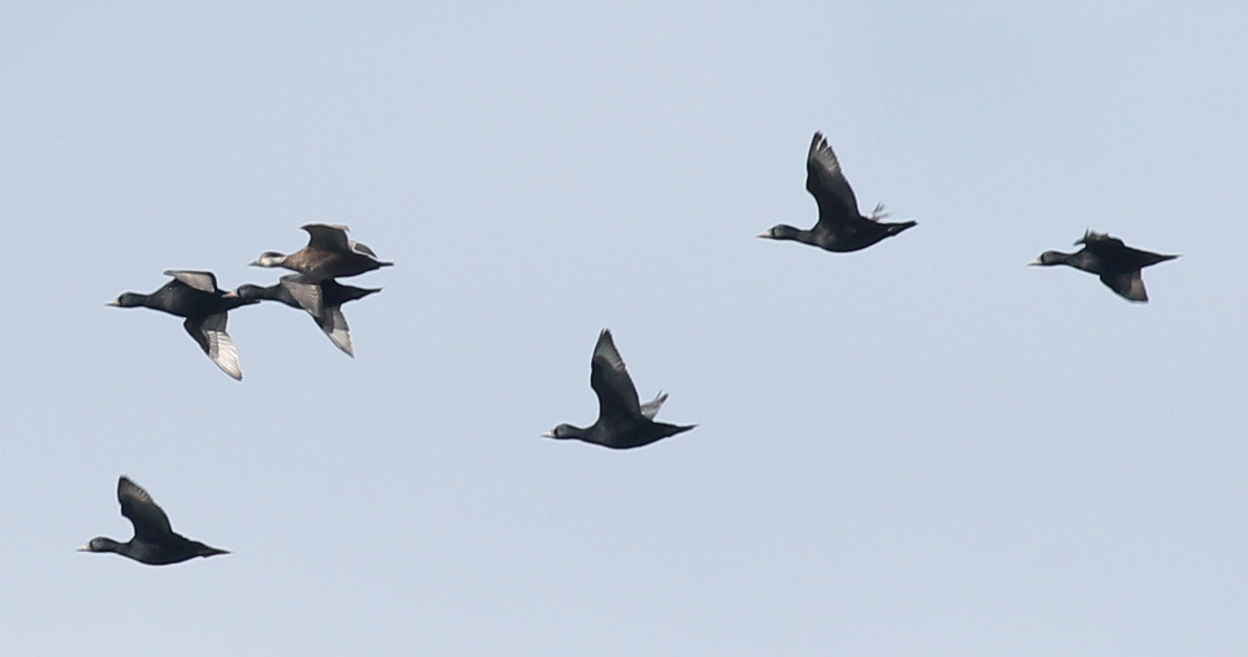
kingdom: Animalia
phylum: Chordata
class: Aves
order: Anseriformes
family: Anatidae
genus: Melanitta
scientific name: Melanitta nigra
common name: Common scoter
